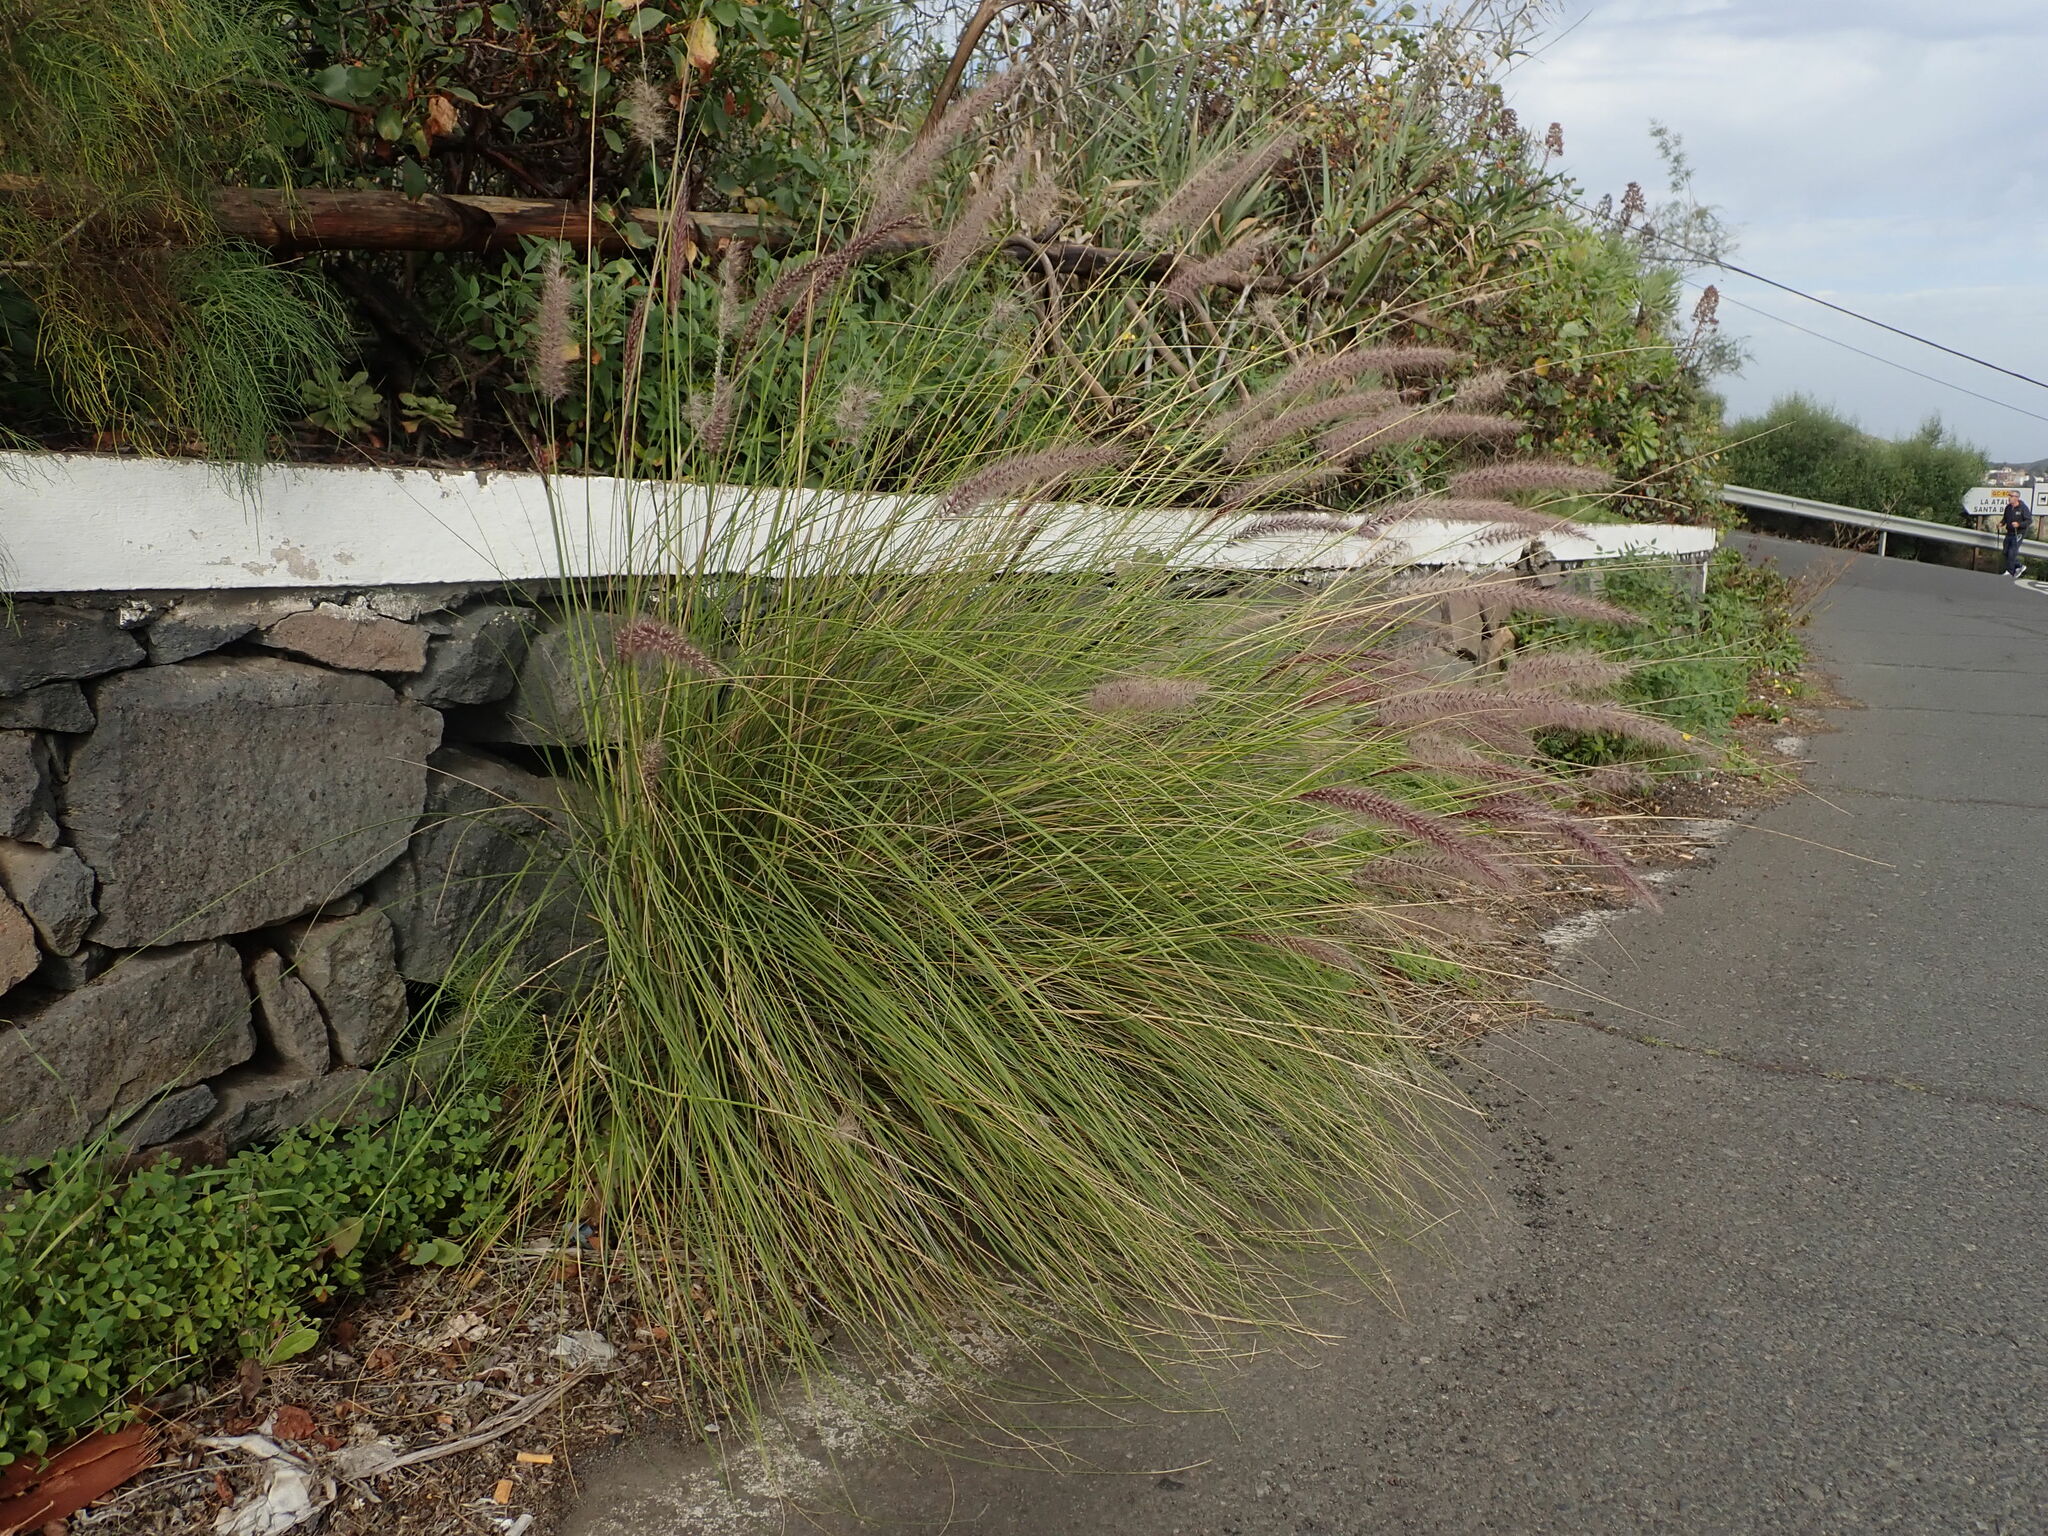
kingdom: Plantae
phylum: Tracheophyta
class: Liliopsida
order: Poales
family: Poaceae
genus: Cenchrus
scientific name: Cenchrus setaceus
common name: Crimson fountaingrass
